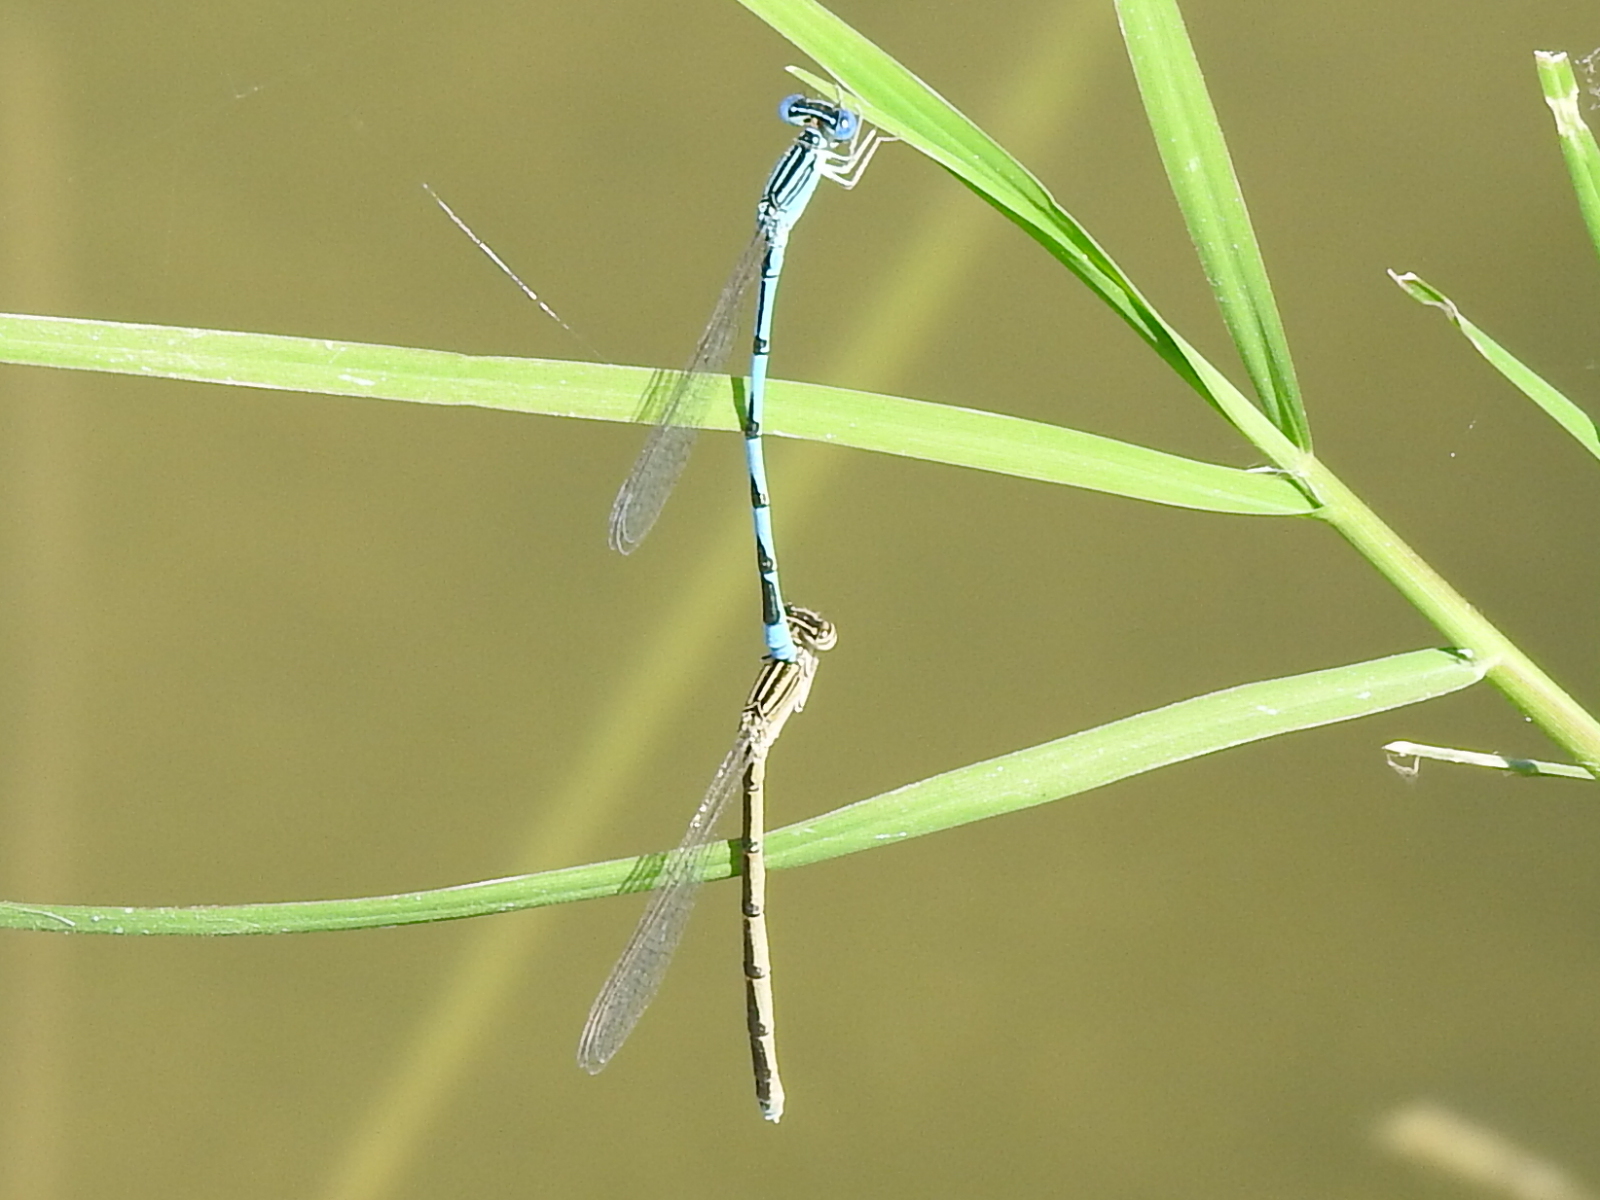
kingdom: Animalia
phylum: Arthropoda
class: Insecta
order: Odonata
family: Coenagrionidae
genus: Enallagma
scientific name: Enallagma basidens
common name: Double-striped bluet
